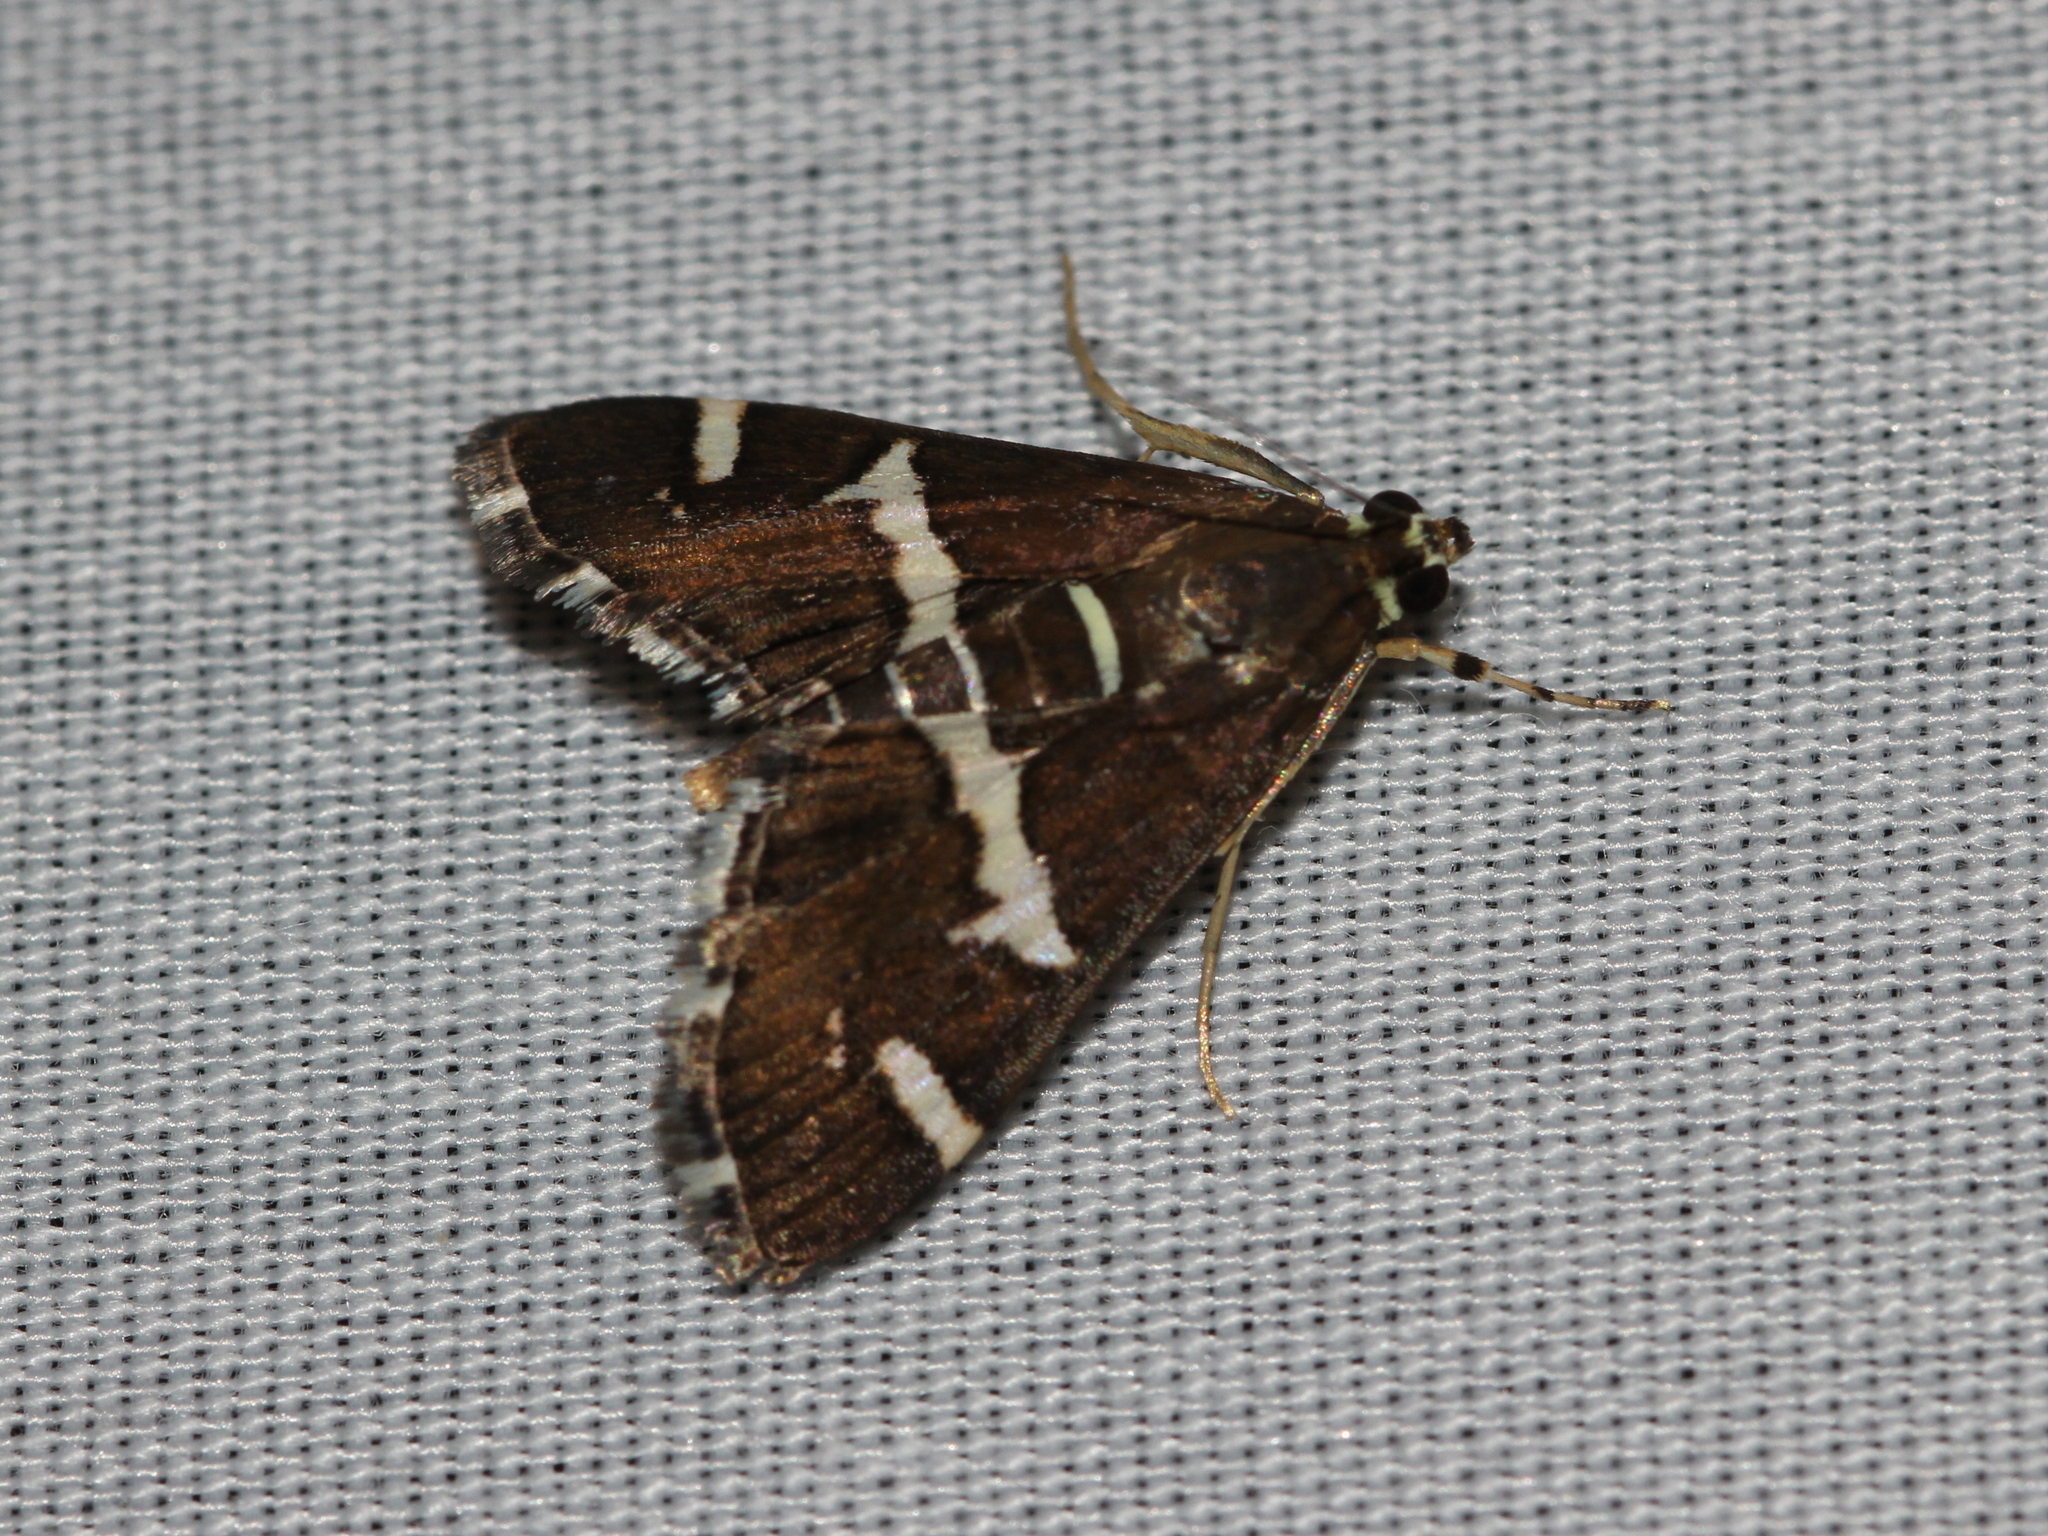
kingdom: Animalia
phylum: Arthropoda
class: Insecta
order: Lepidoptera
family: Crambidae
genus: Spoladea
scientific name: Spoladea recurvalis
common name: Beet webworm moth
